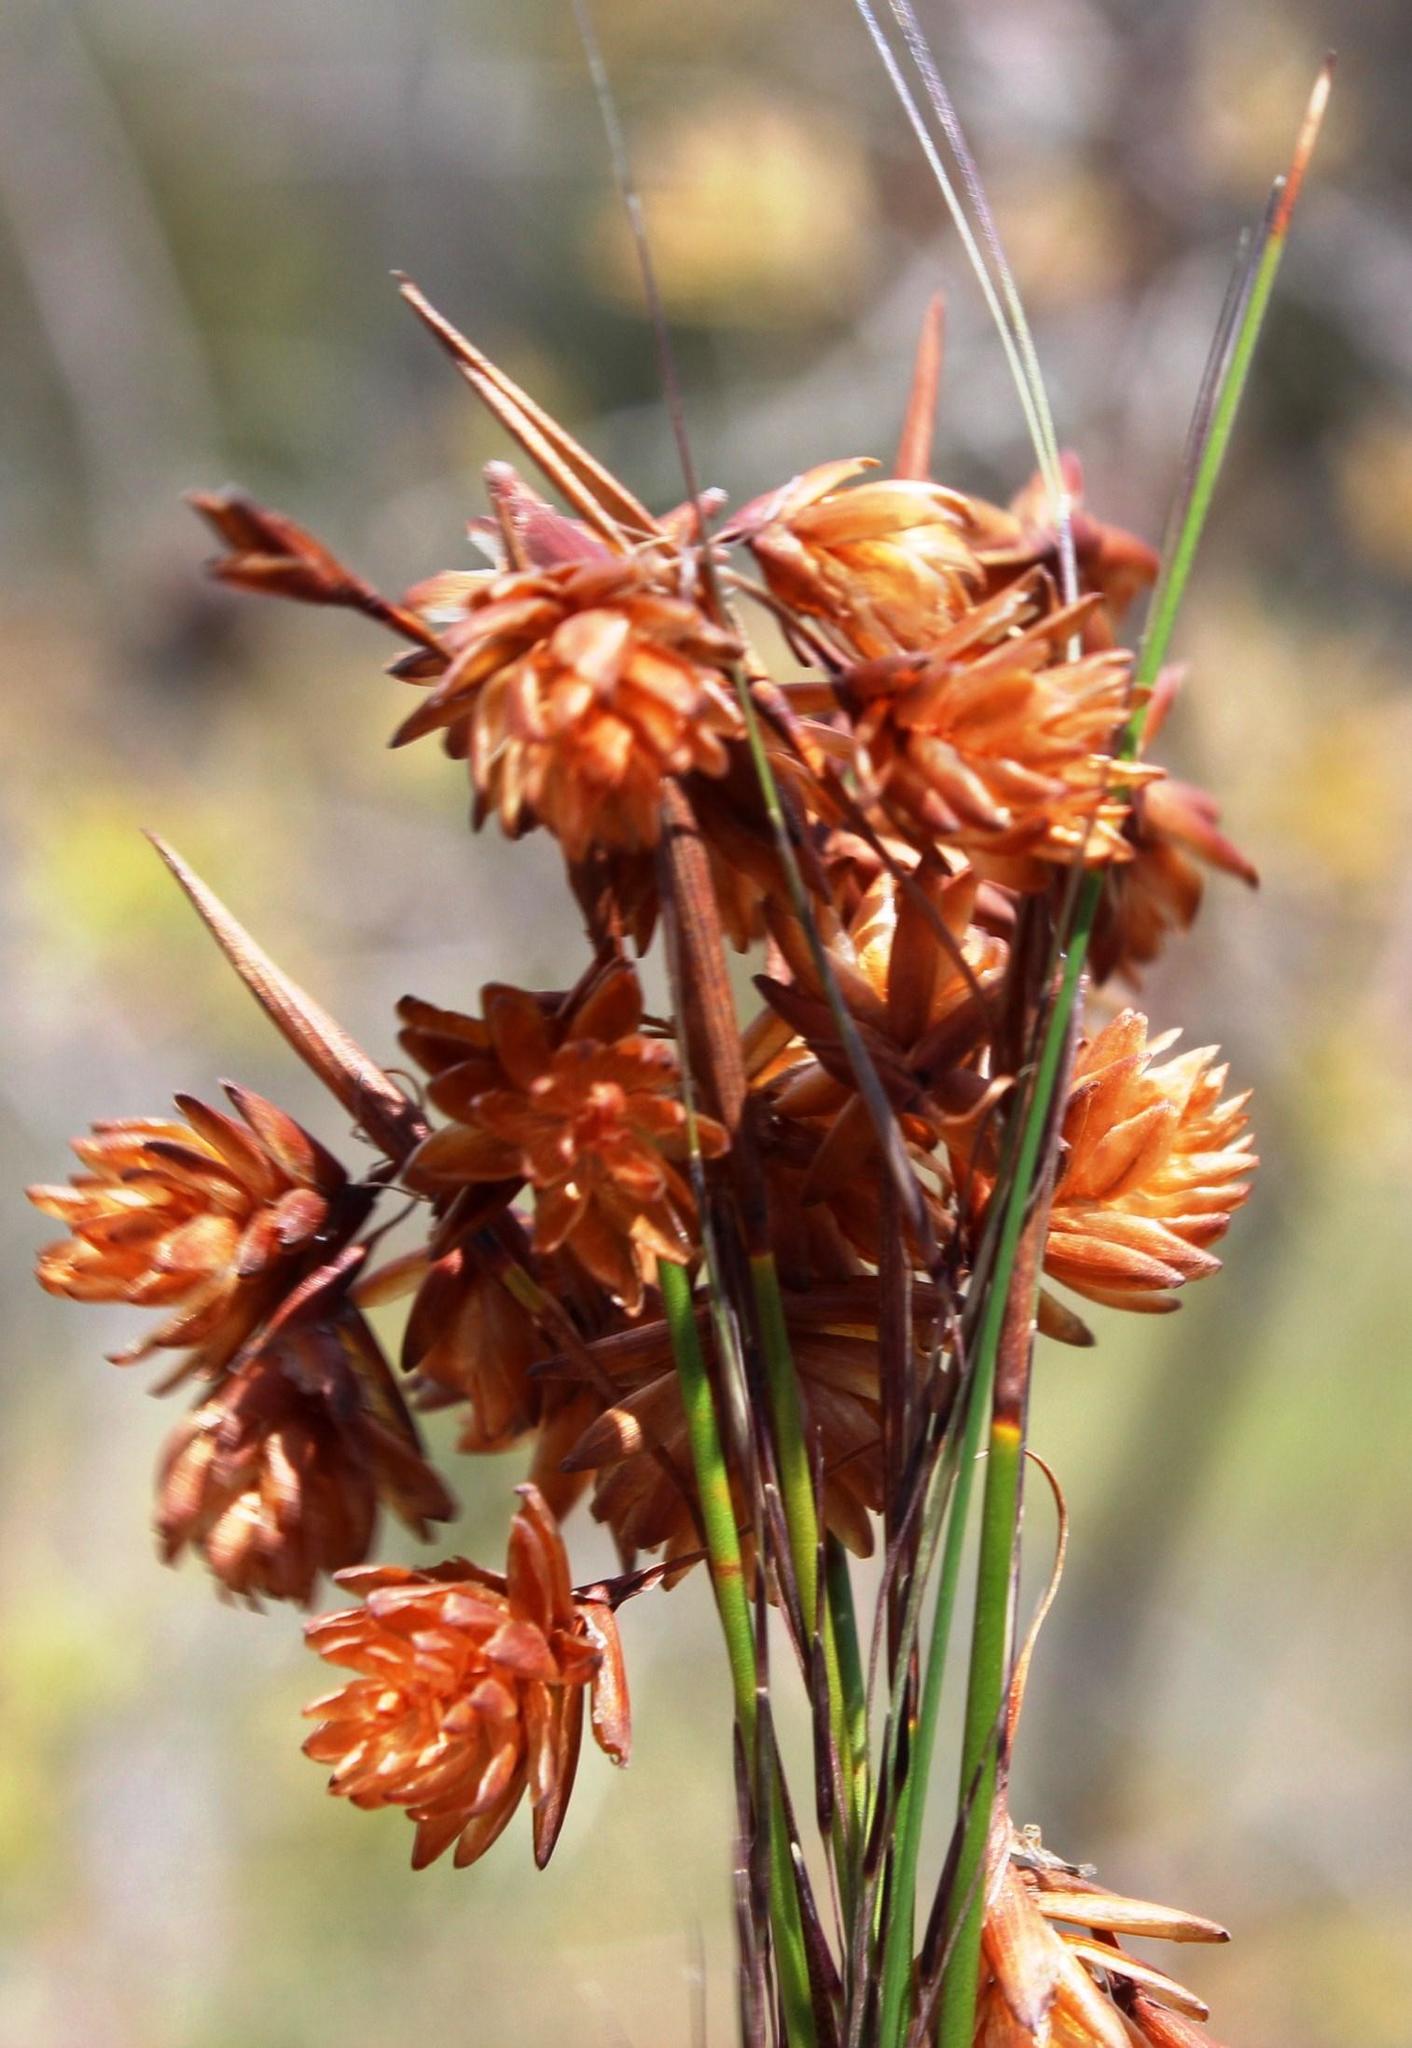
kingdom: Plantae
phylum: Tracheophyta
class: Liliopsida
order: Poales
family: Restionaceae
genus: Staberoha
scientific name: Staberoha distachyos
